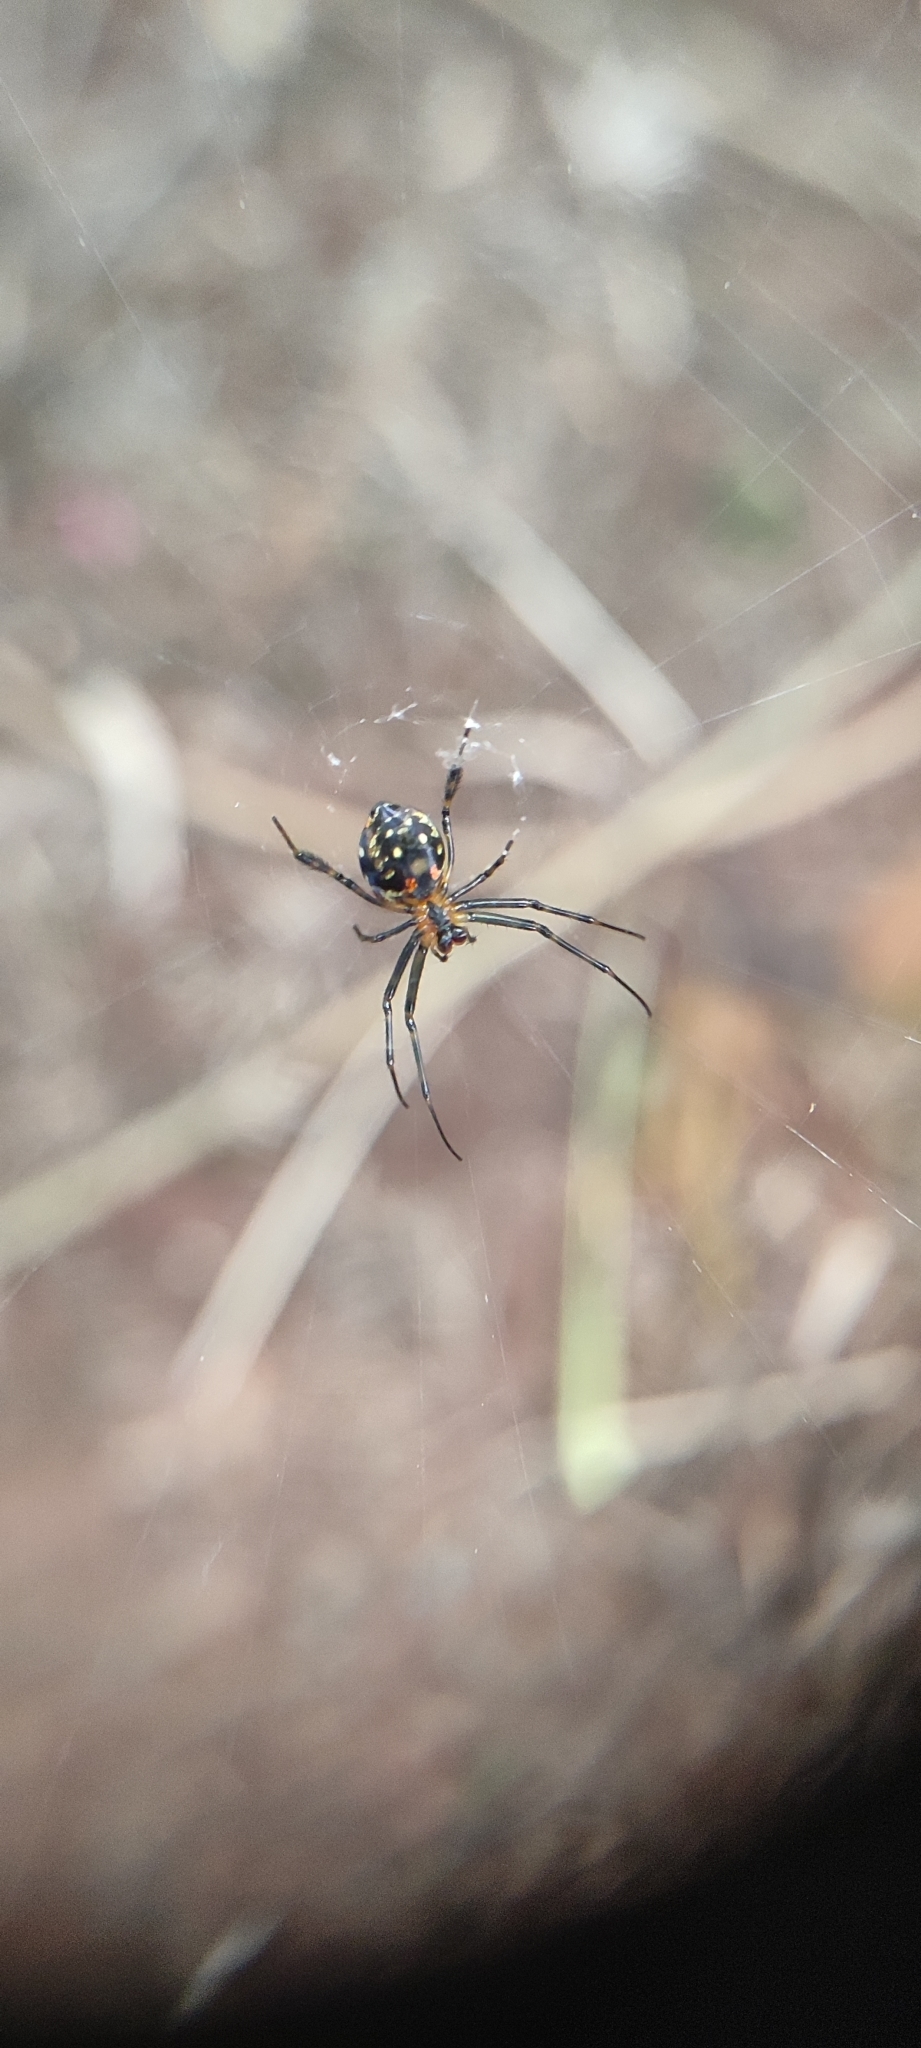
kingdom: Animalia
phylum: Arthropoda
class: Arachnida
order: Araneae
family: Tetragnathidae
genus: Leucauge
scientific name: Leucauge fastigata
